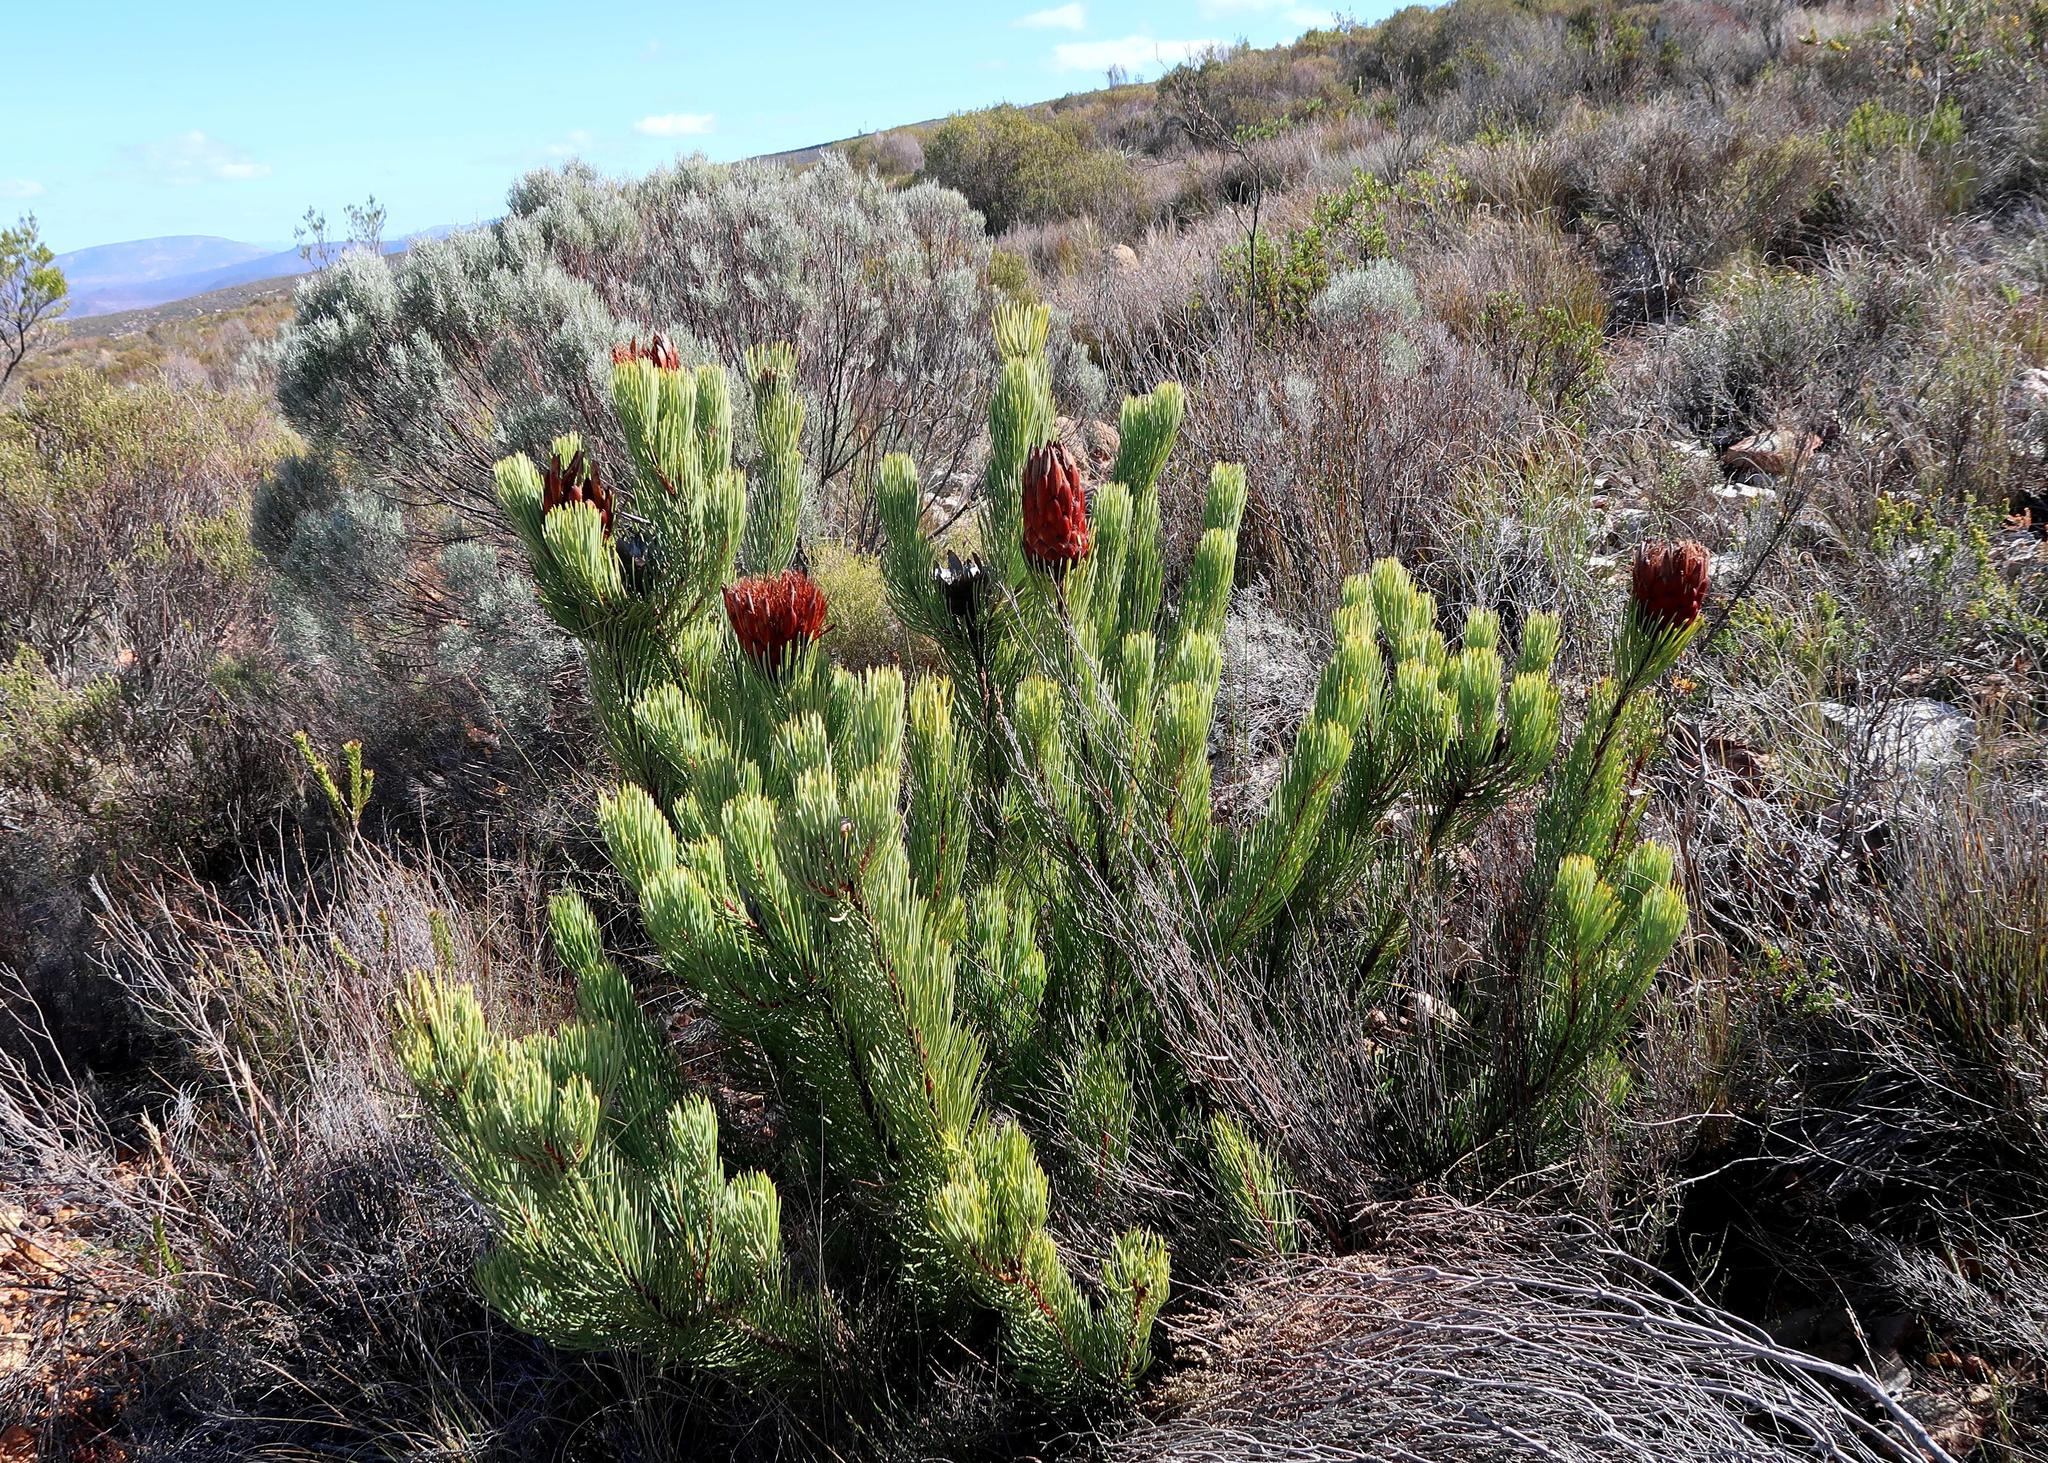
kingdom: Plantae
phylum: Tracheophyta
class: Magnoliopsida
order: Proteales
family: Proteaceae
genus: Protea
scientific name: Protea aristata
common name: Ladismith sugarbush
